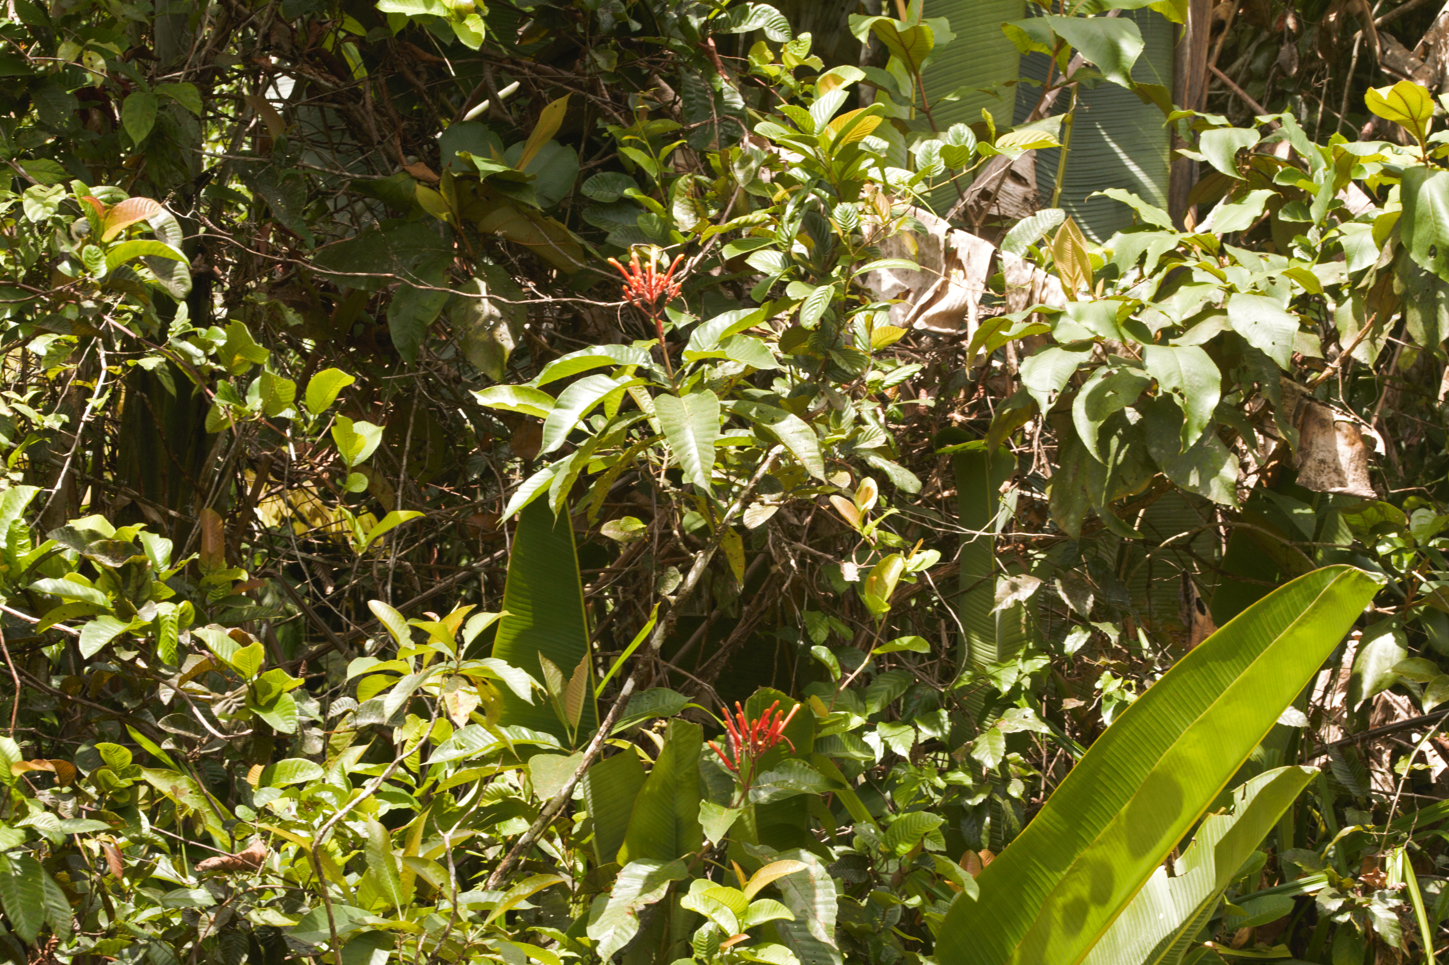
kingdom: Plantae
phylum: Tracheophyta
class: Magnoliopsida
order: Gentianales
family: Rubiaceae
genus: Isertia
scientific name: Isertia coccinea
